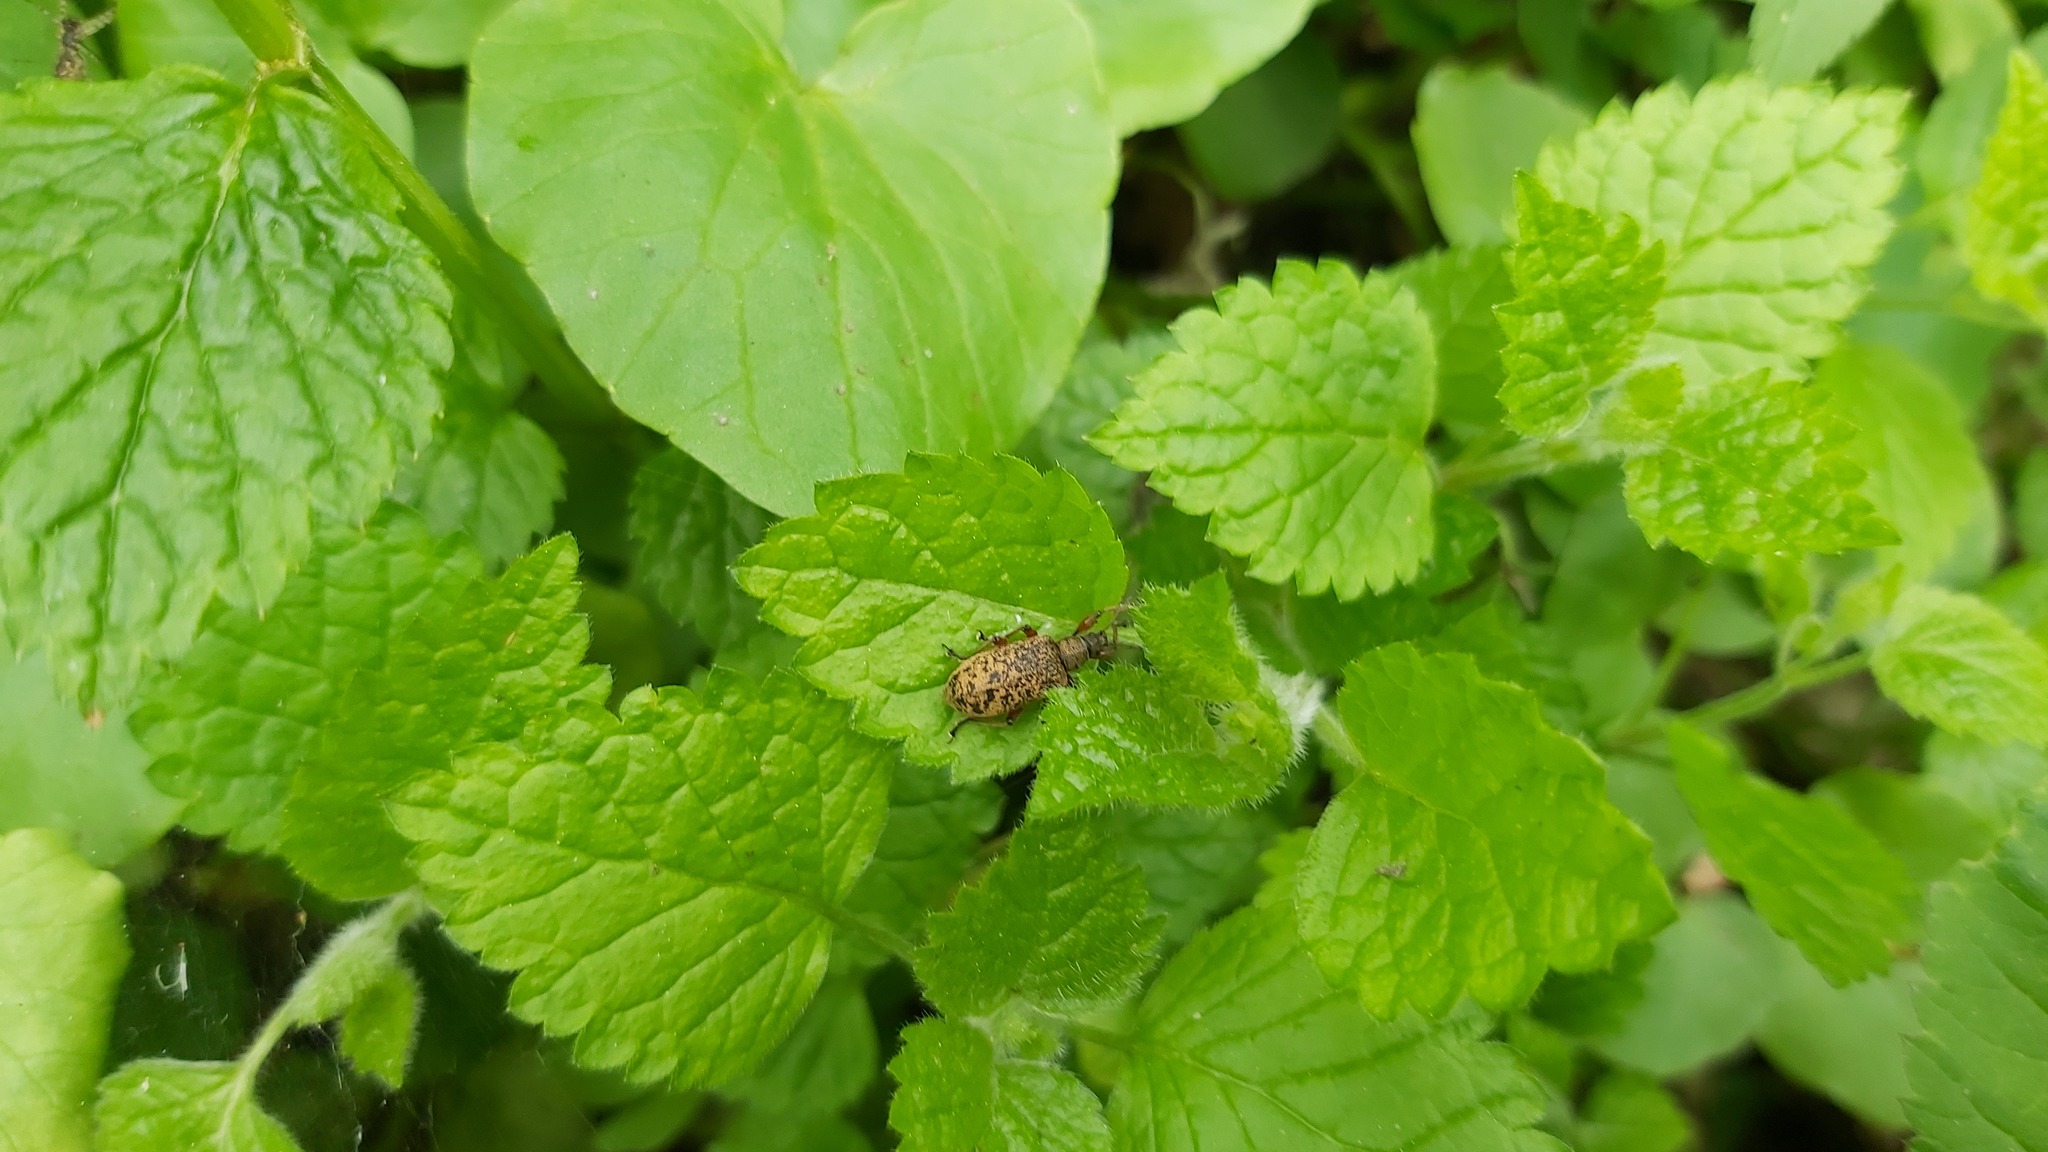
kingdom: Animalia
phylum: Arthropoda
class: Insecta
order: Coleoptera
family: Curculionidae
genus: Phyllobius
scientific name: Phyllobius glaucus
